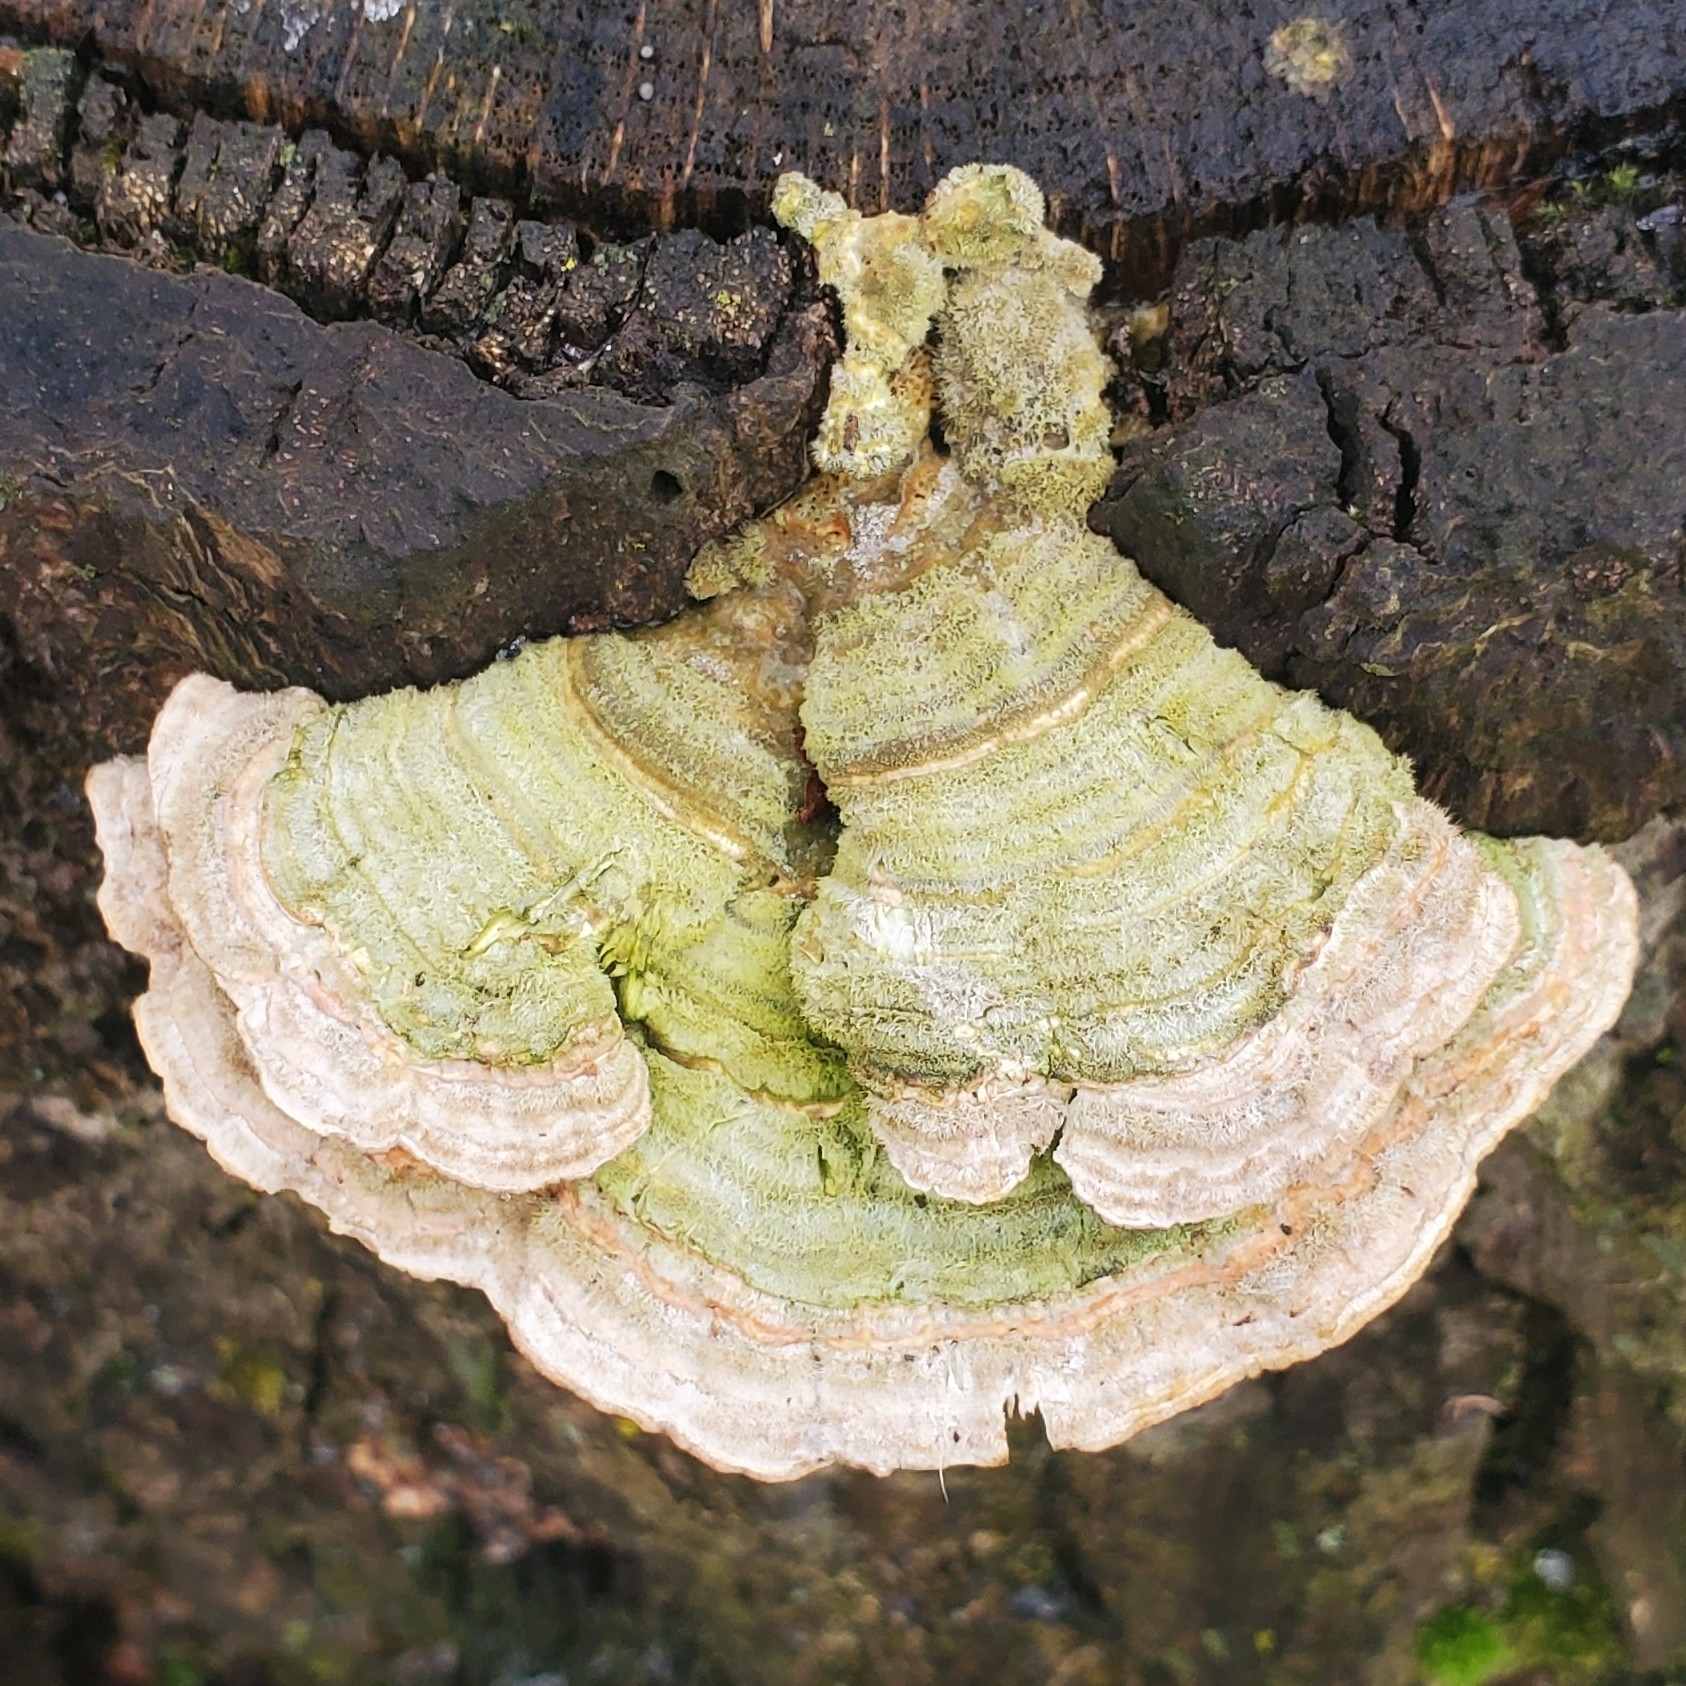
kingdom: Fungi
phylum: Basidiomycota
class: Agaricomycetes
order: Polyporales
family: Polyporaceae
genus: Lenzites
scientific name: Lenzites betulinus
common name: Birch mazegill
